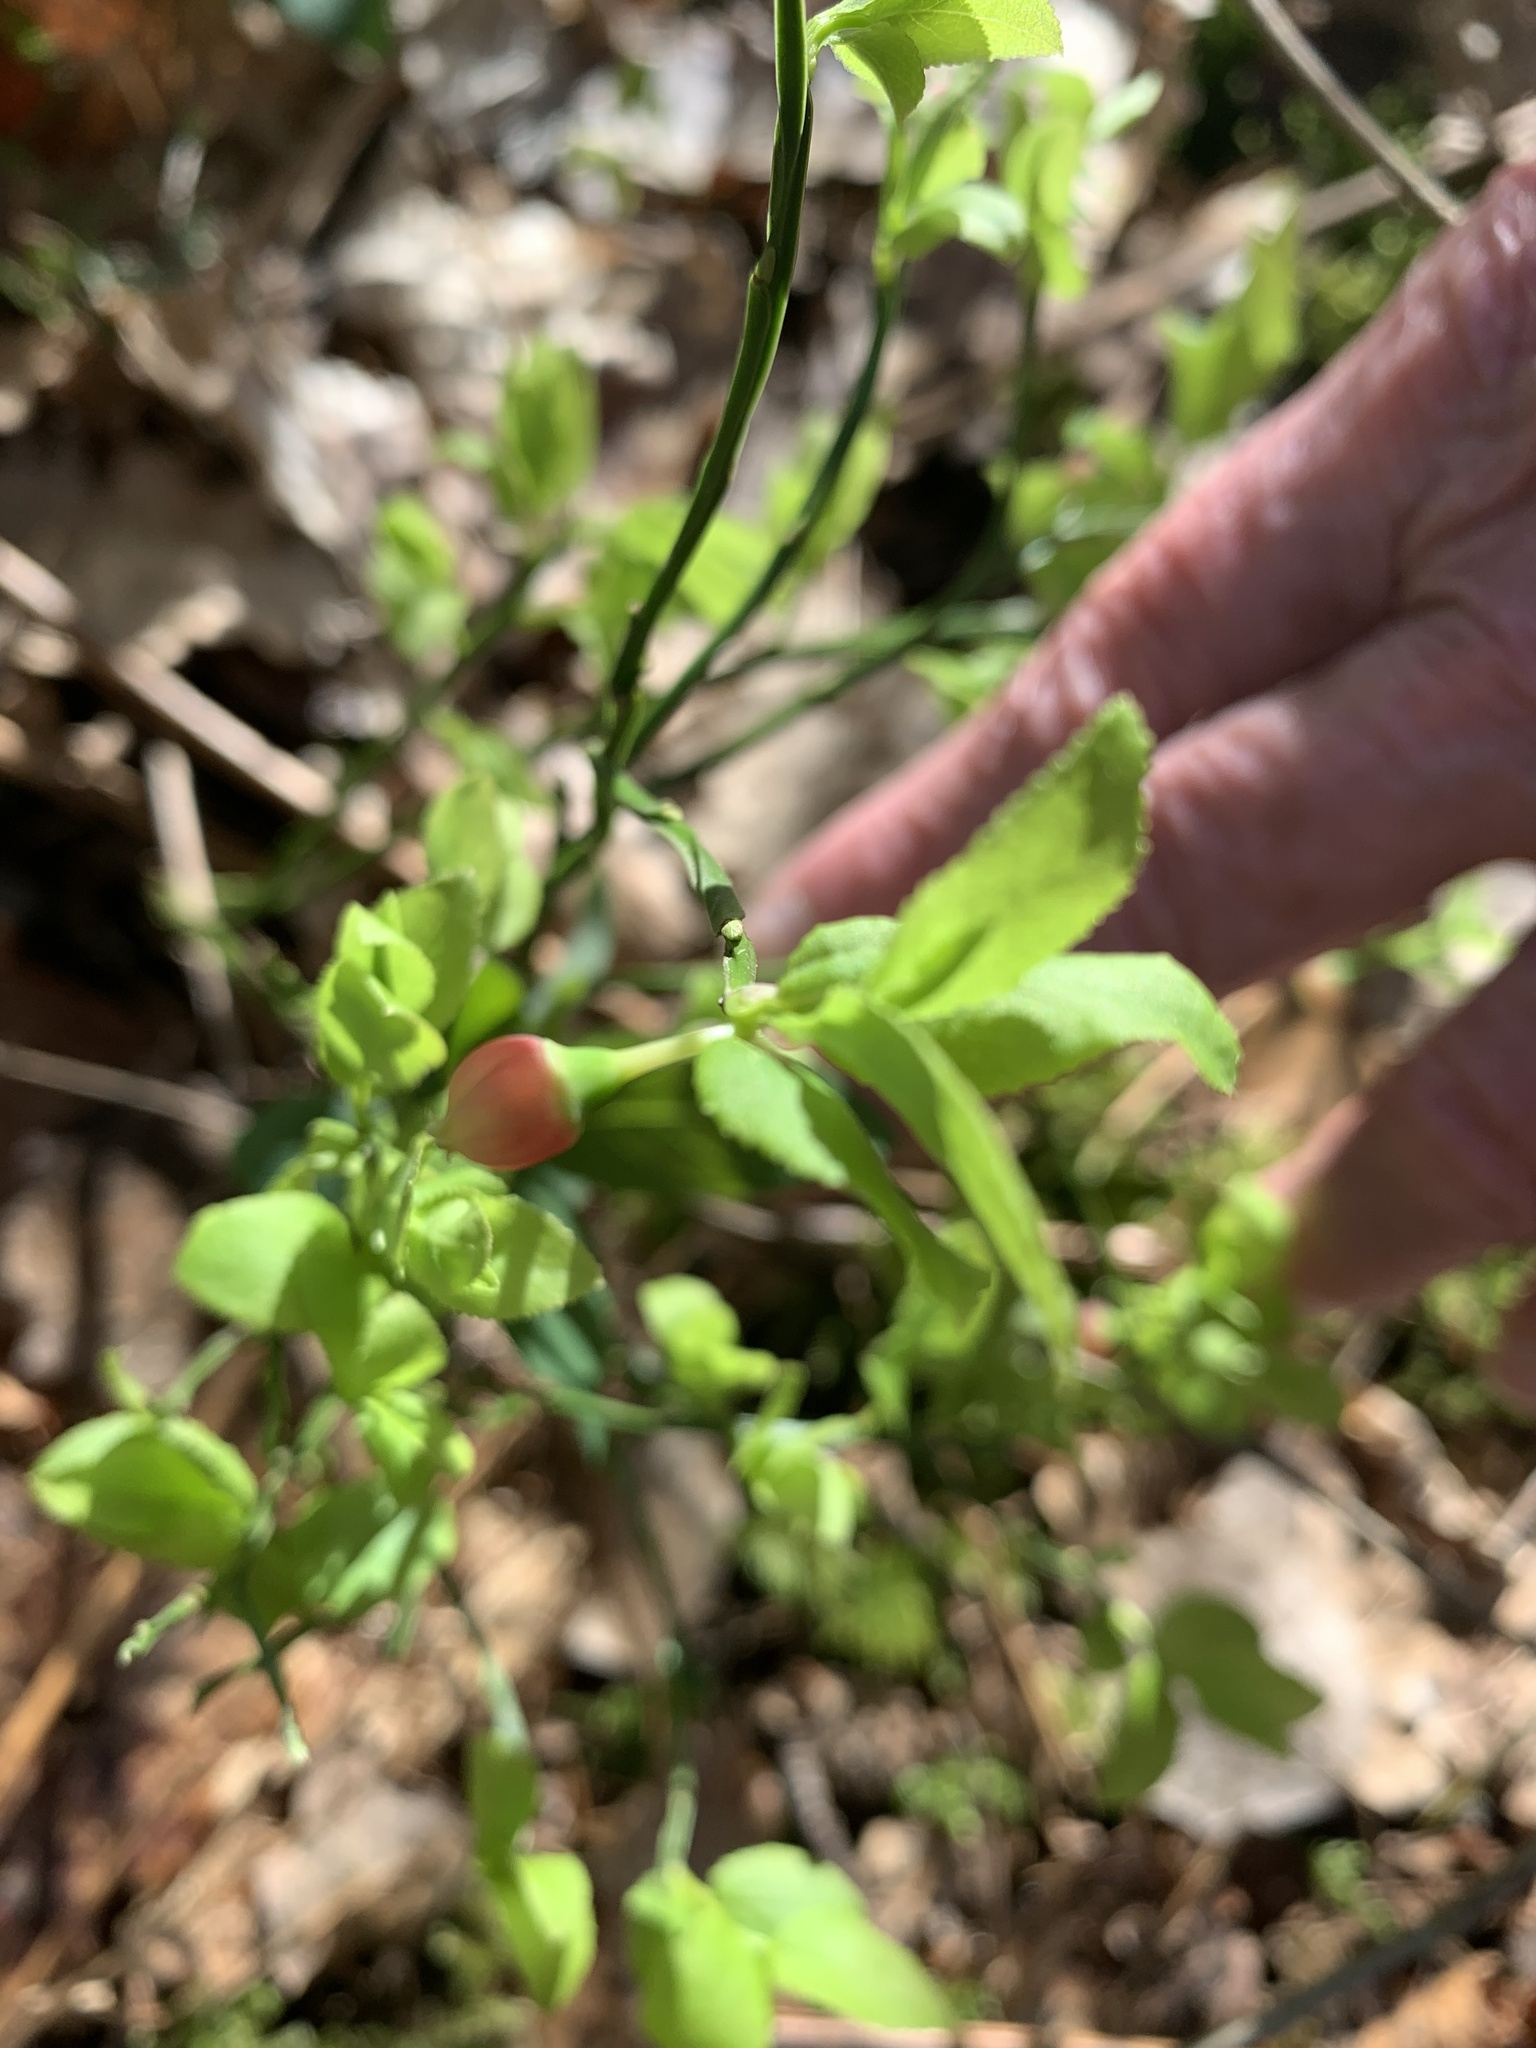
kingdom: Plantae
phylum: Tracheophyta
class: Magnoliopsida
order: Ericales
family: Ericaceae
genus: Vaccinium
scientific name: Vaccinium myrtillus
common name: Bilberry
